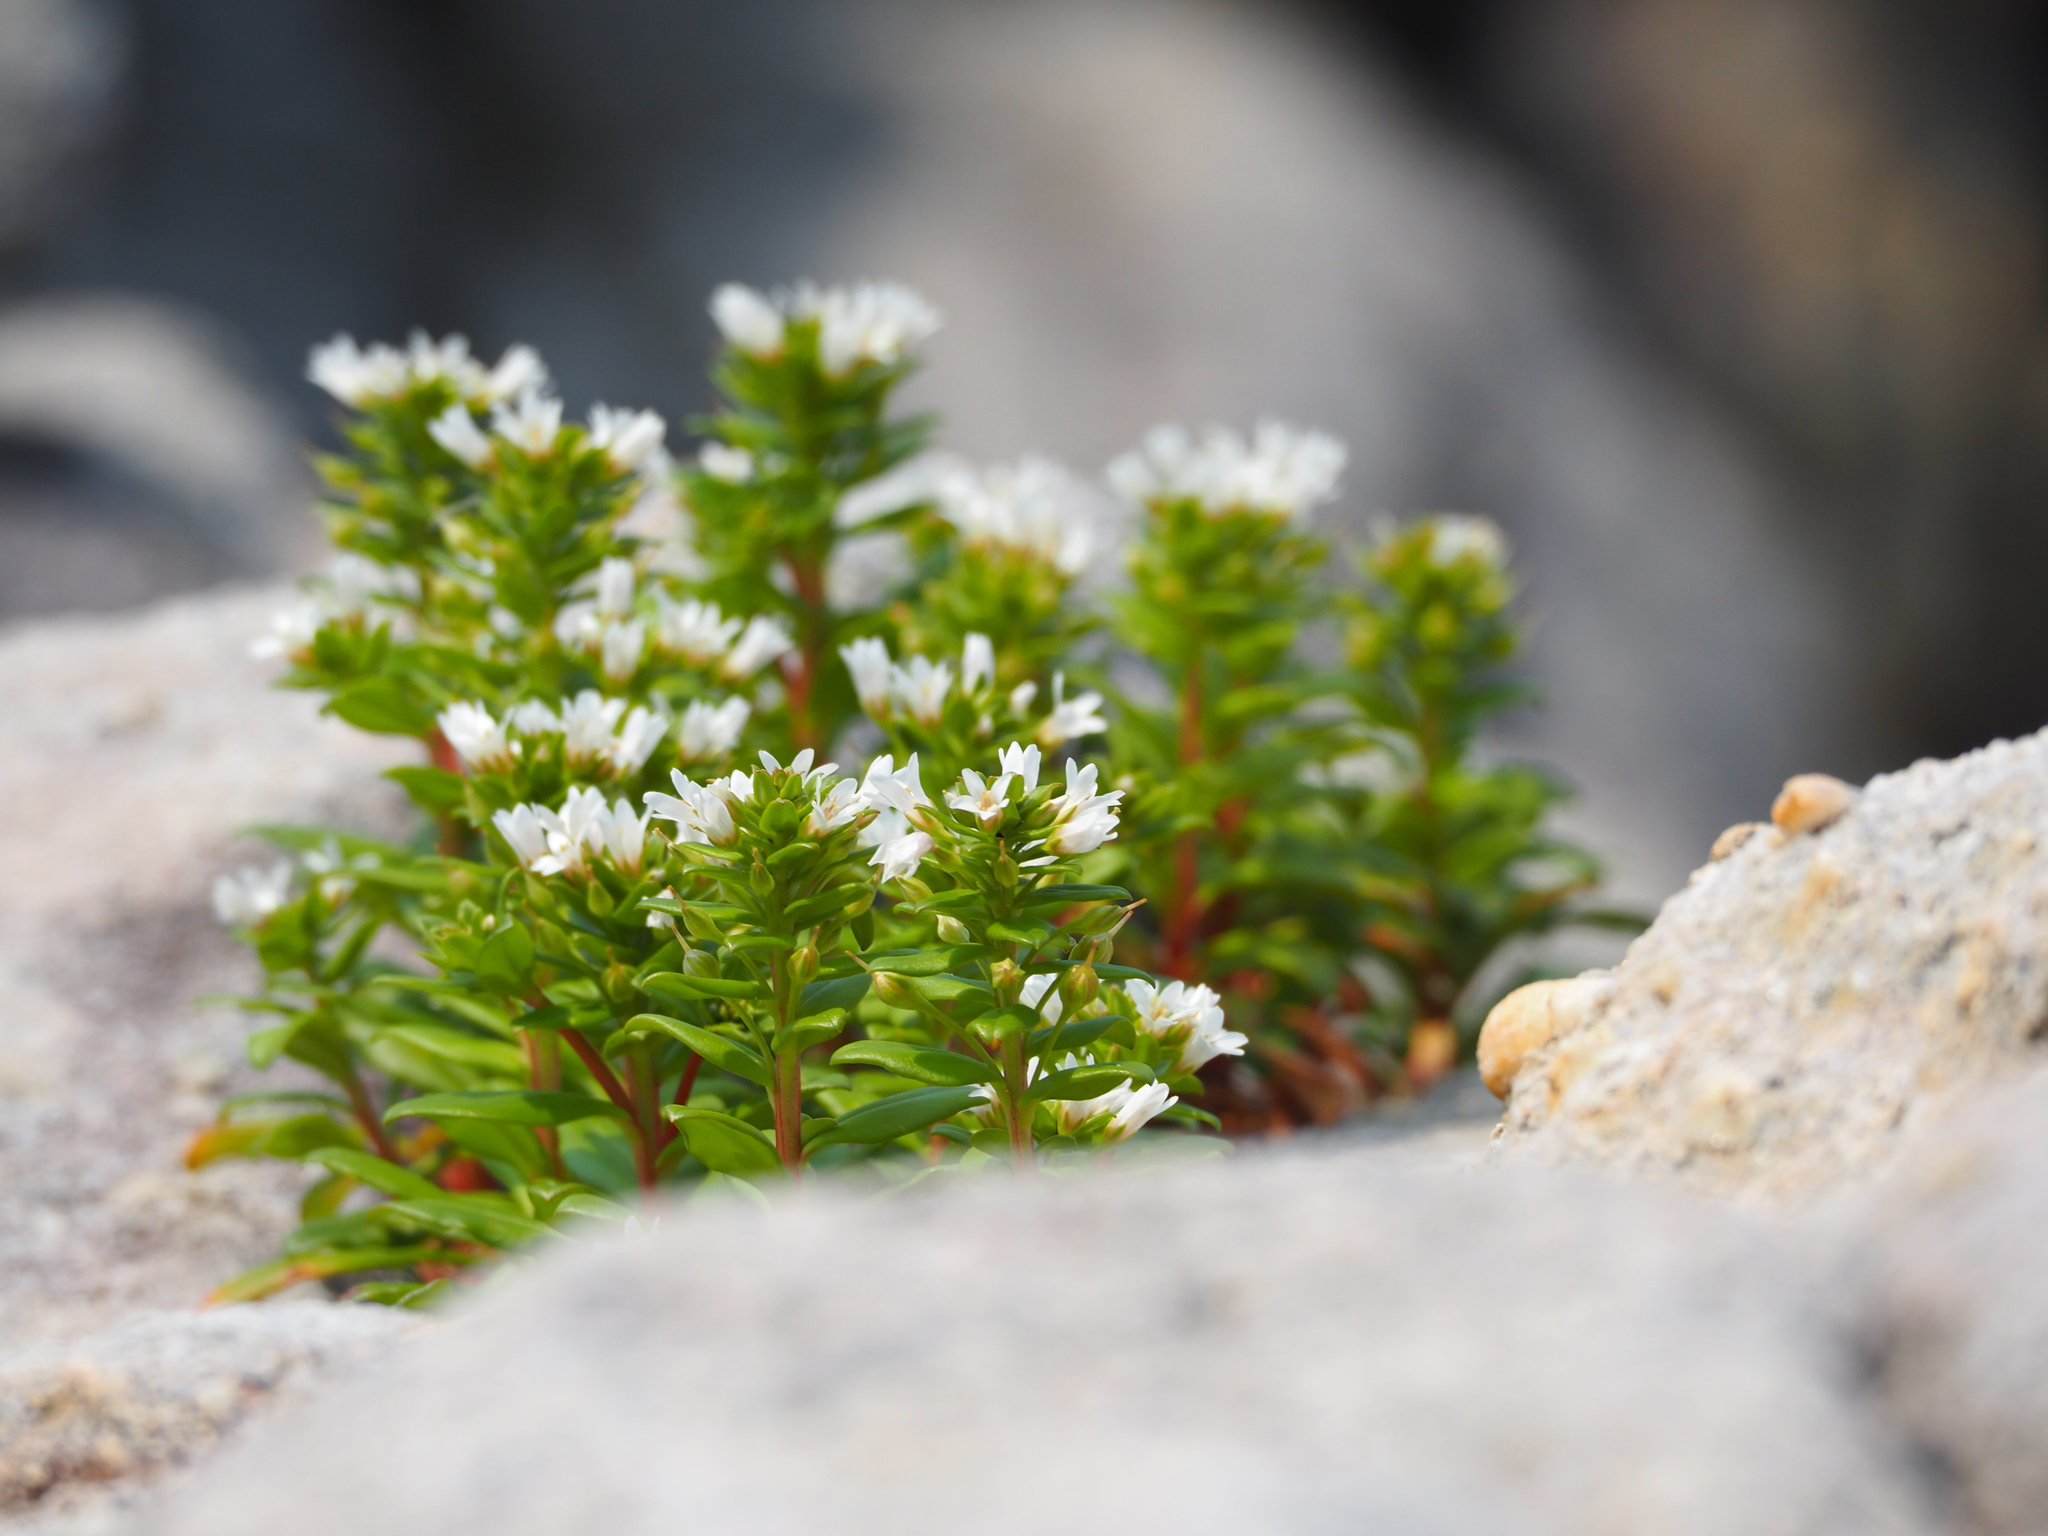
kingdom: Plantae
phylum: Tracheophyta
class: Magnoliopsida
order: Ericales
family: Primulaceae
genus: Lysimachia
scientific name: Lysimachia mauritiana
